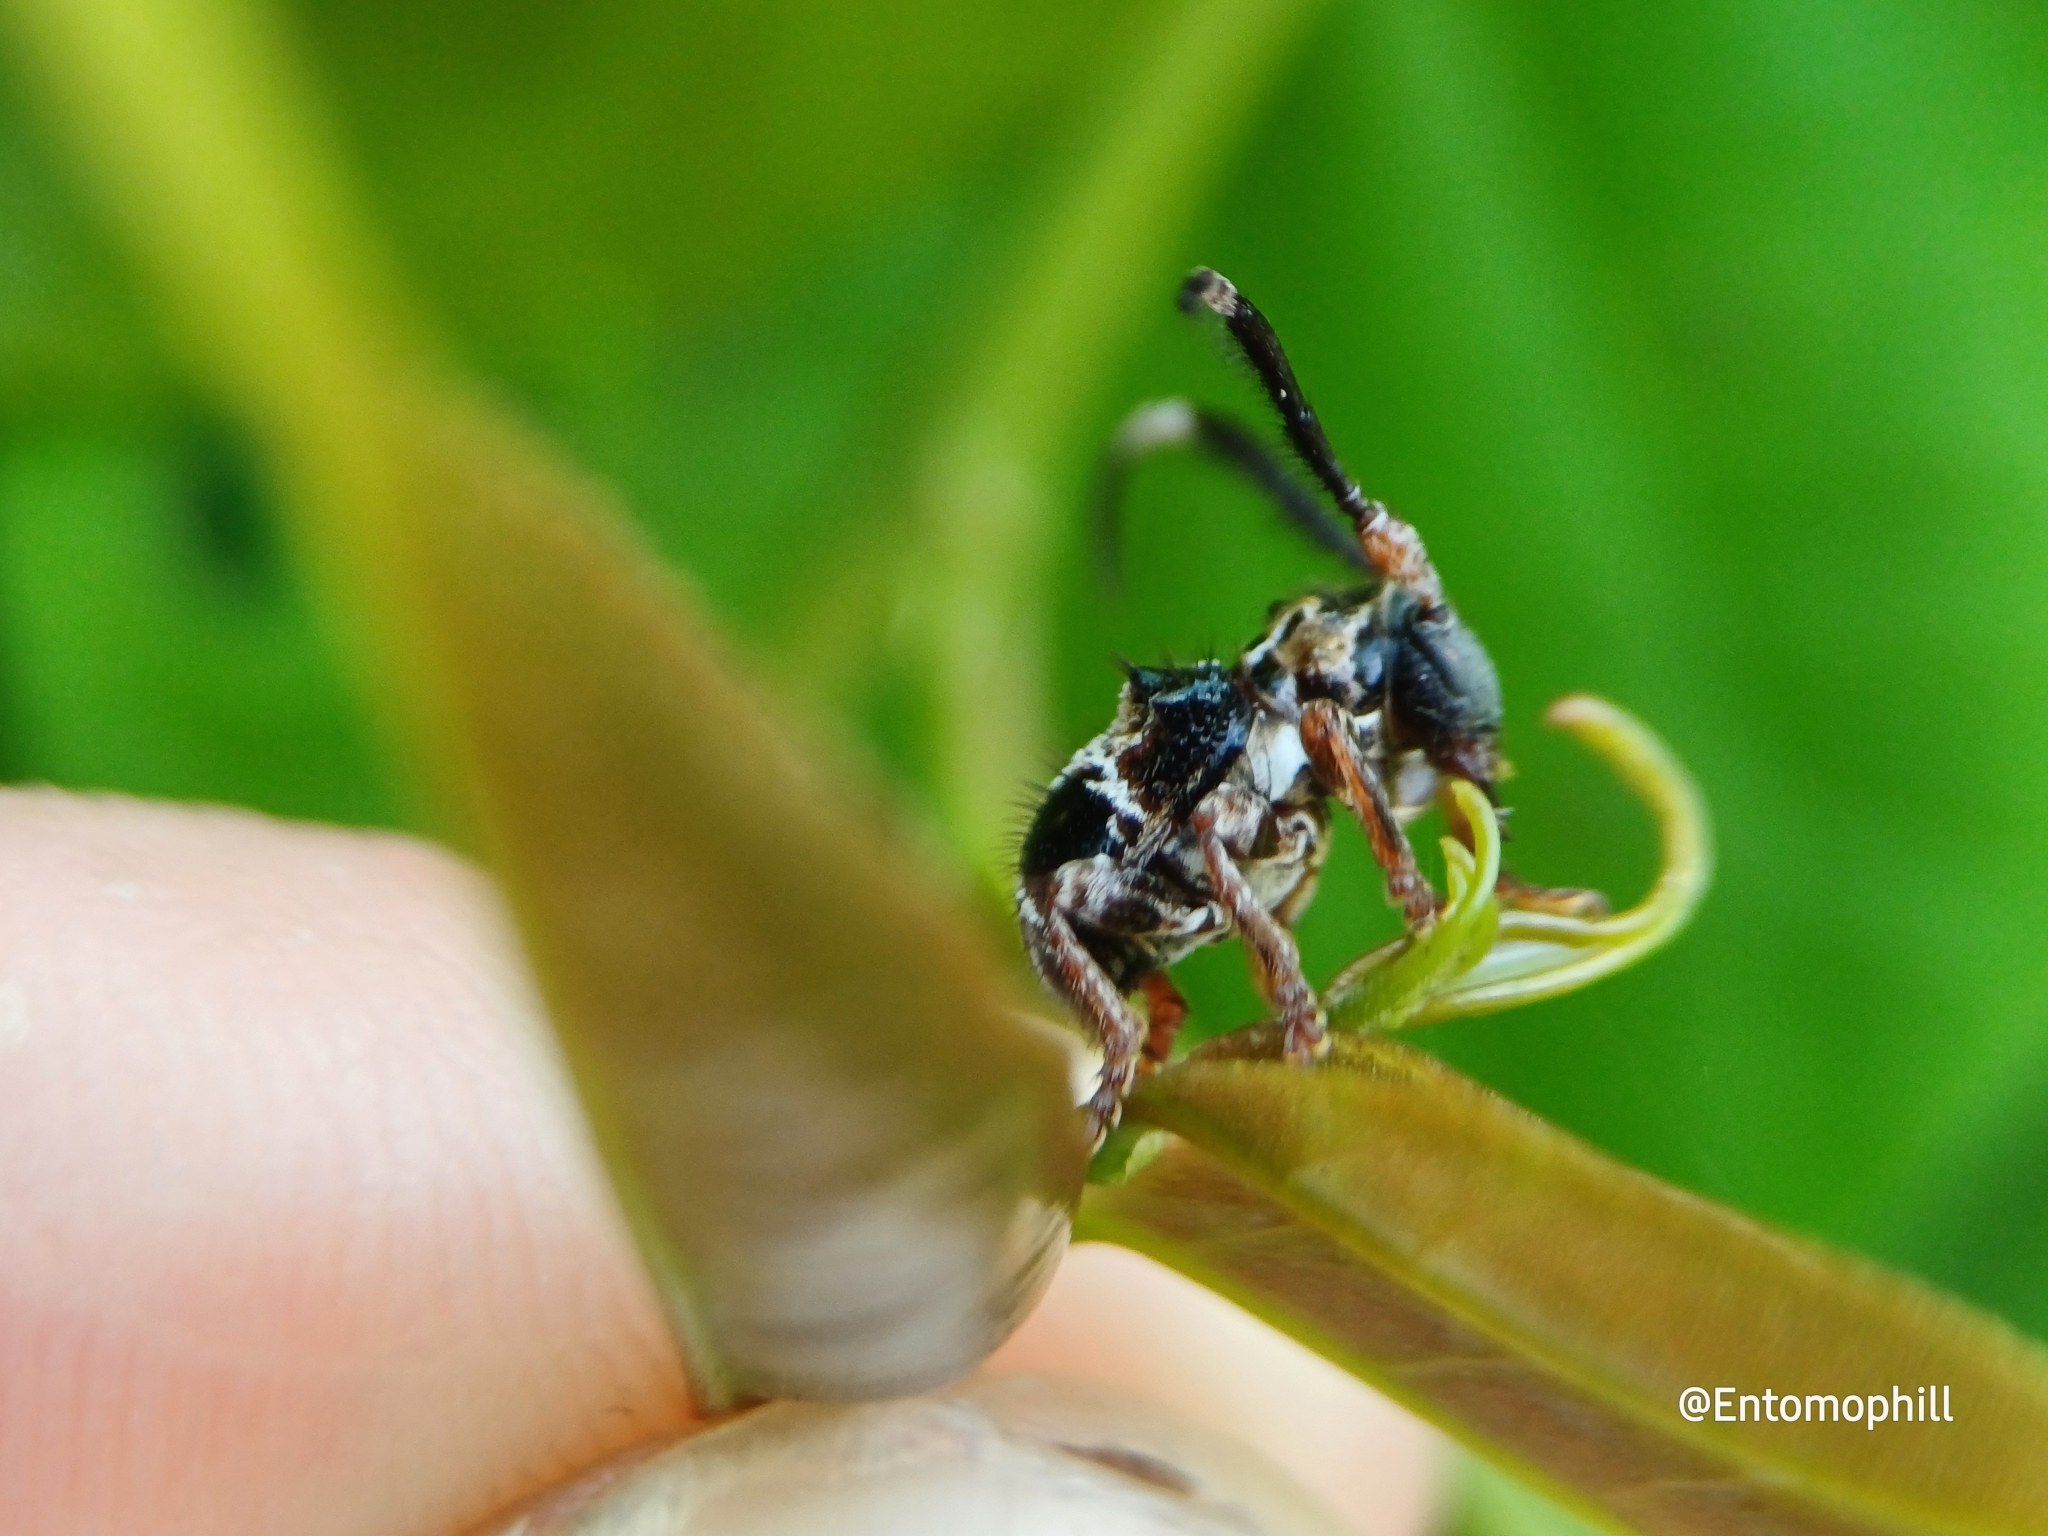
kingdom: Animalia
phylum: Arthropoda
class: Insecta
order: Coleoptera
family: Cerambycidae
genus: Tessarecphora
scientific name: Tessarecphora arachnoides
